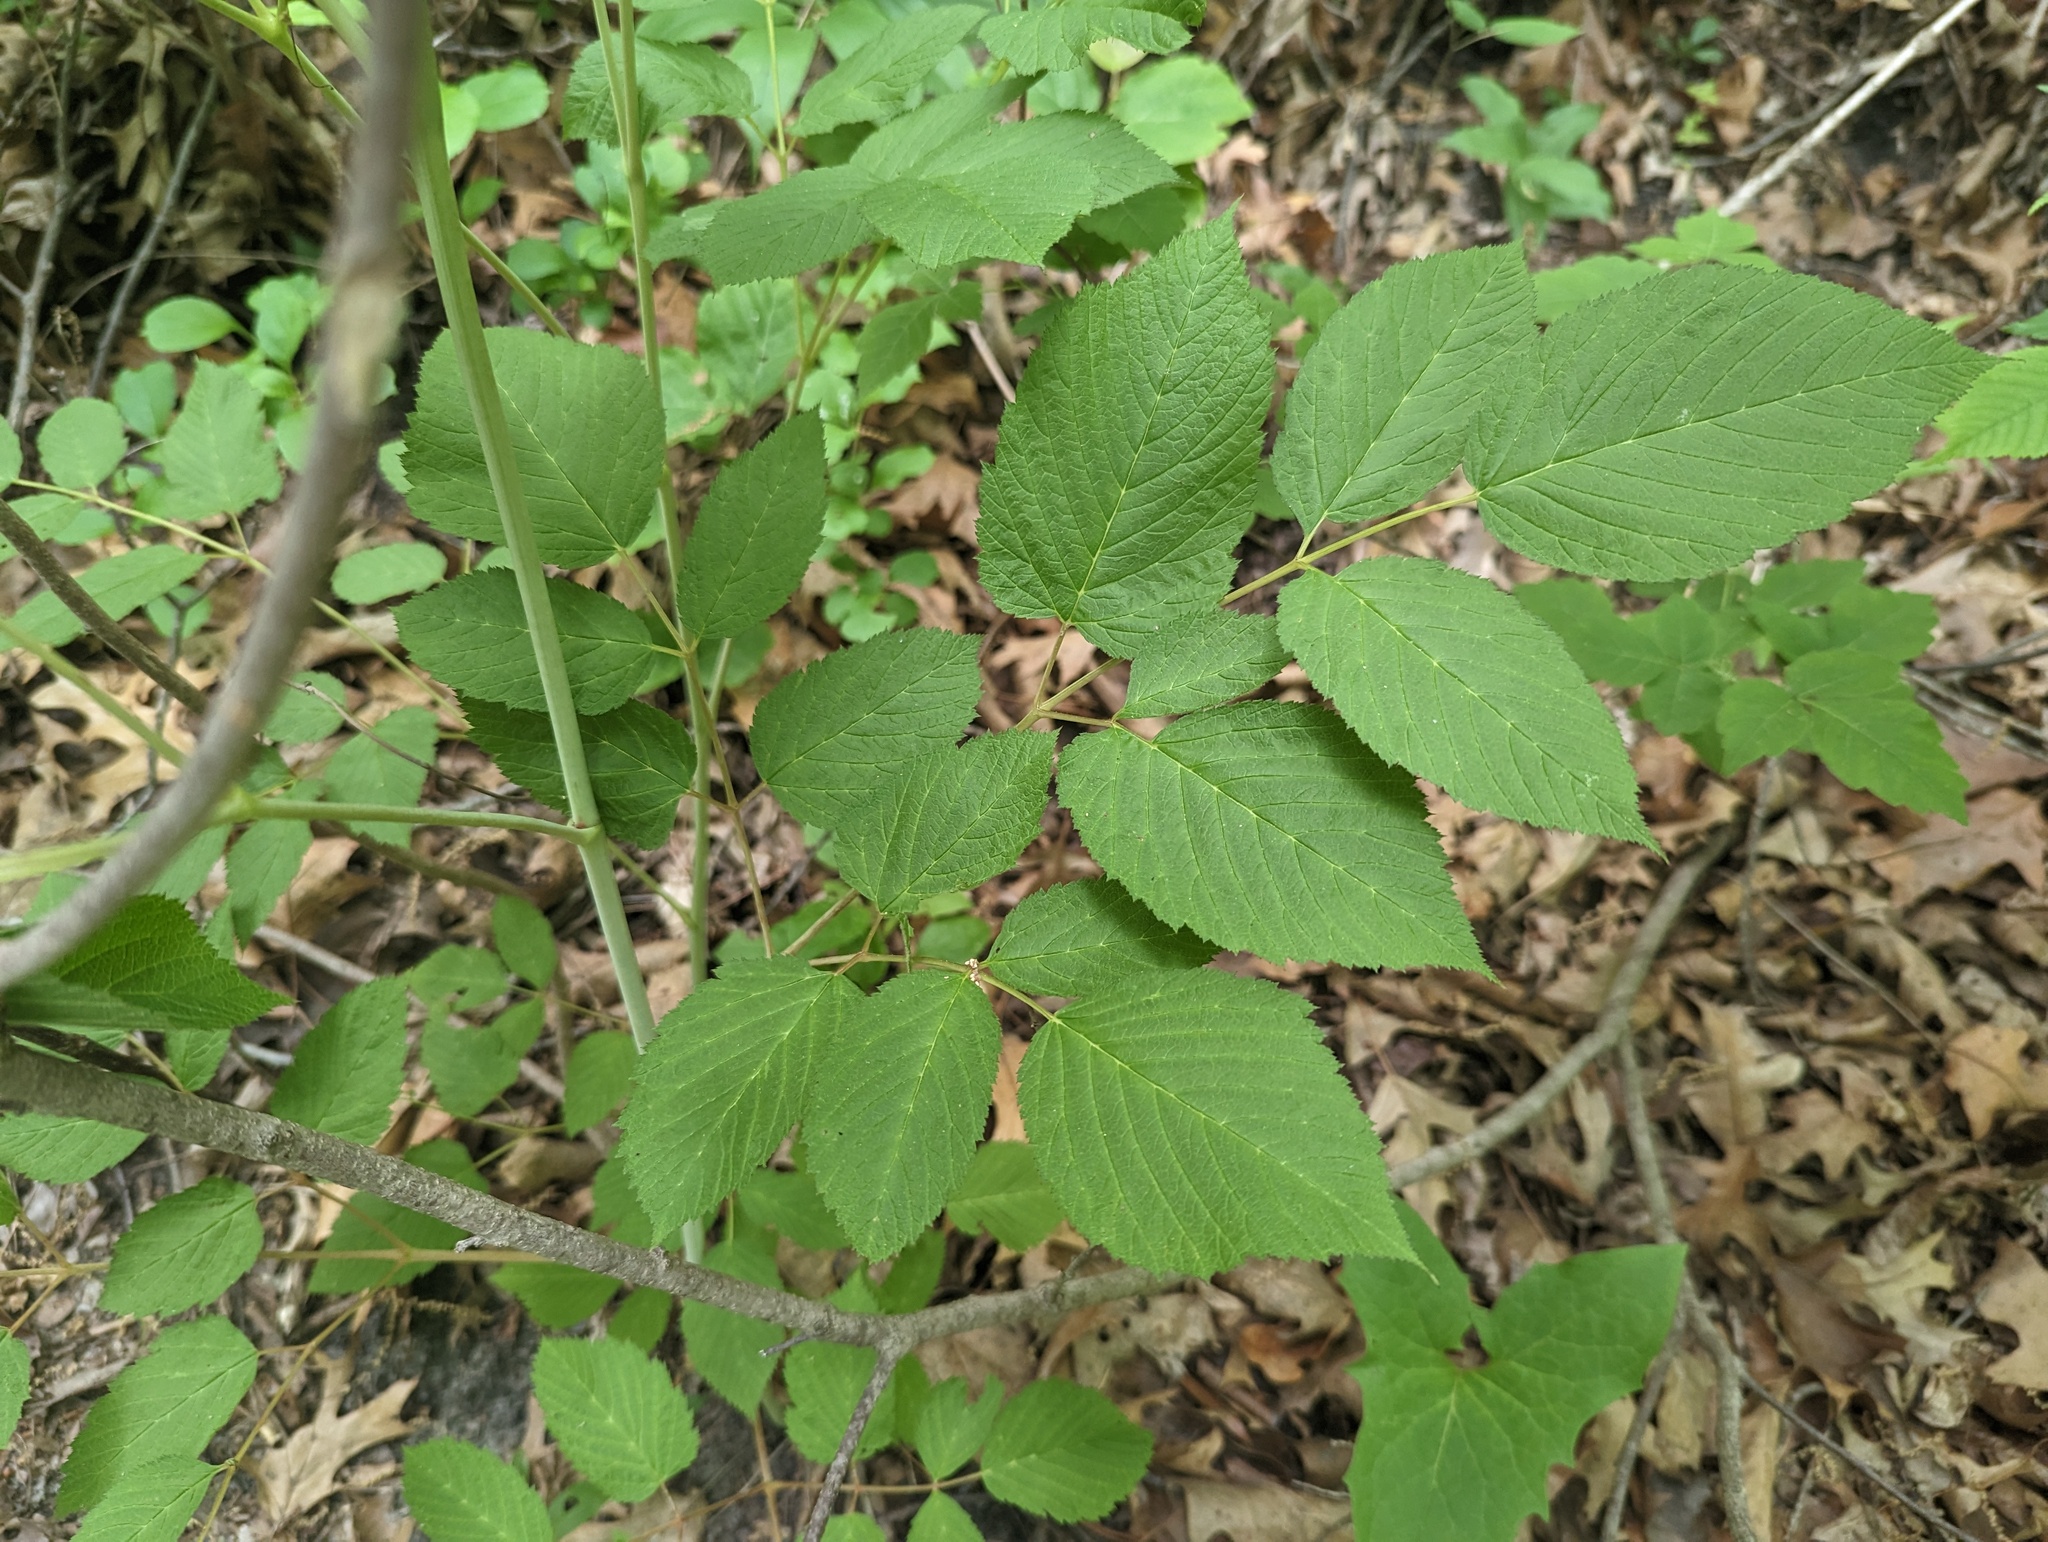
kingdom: Plantae
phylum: Tracheophyta
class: Magnoliopsida
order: Rosales
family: Rosaceae
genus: Aruncus
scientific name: Aruncus dioicus
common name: Buck's-beard
